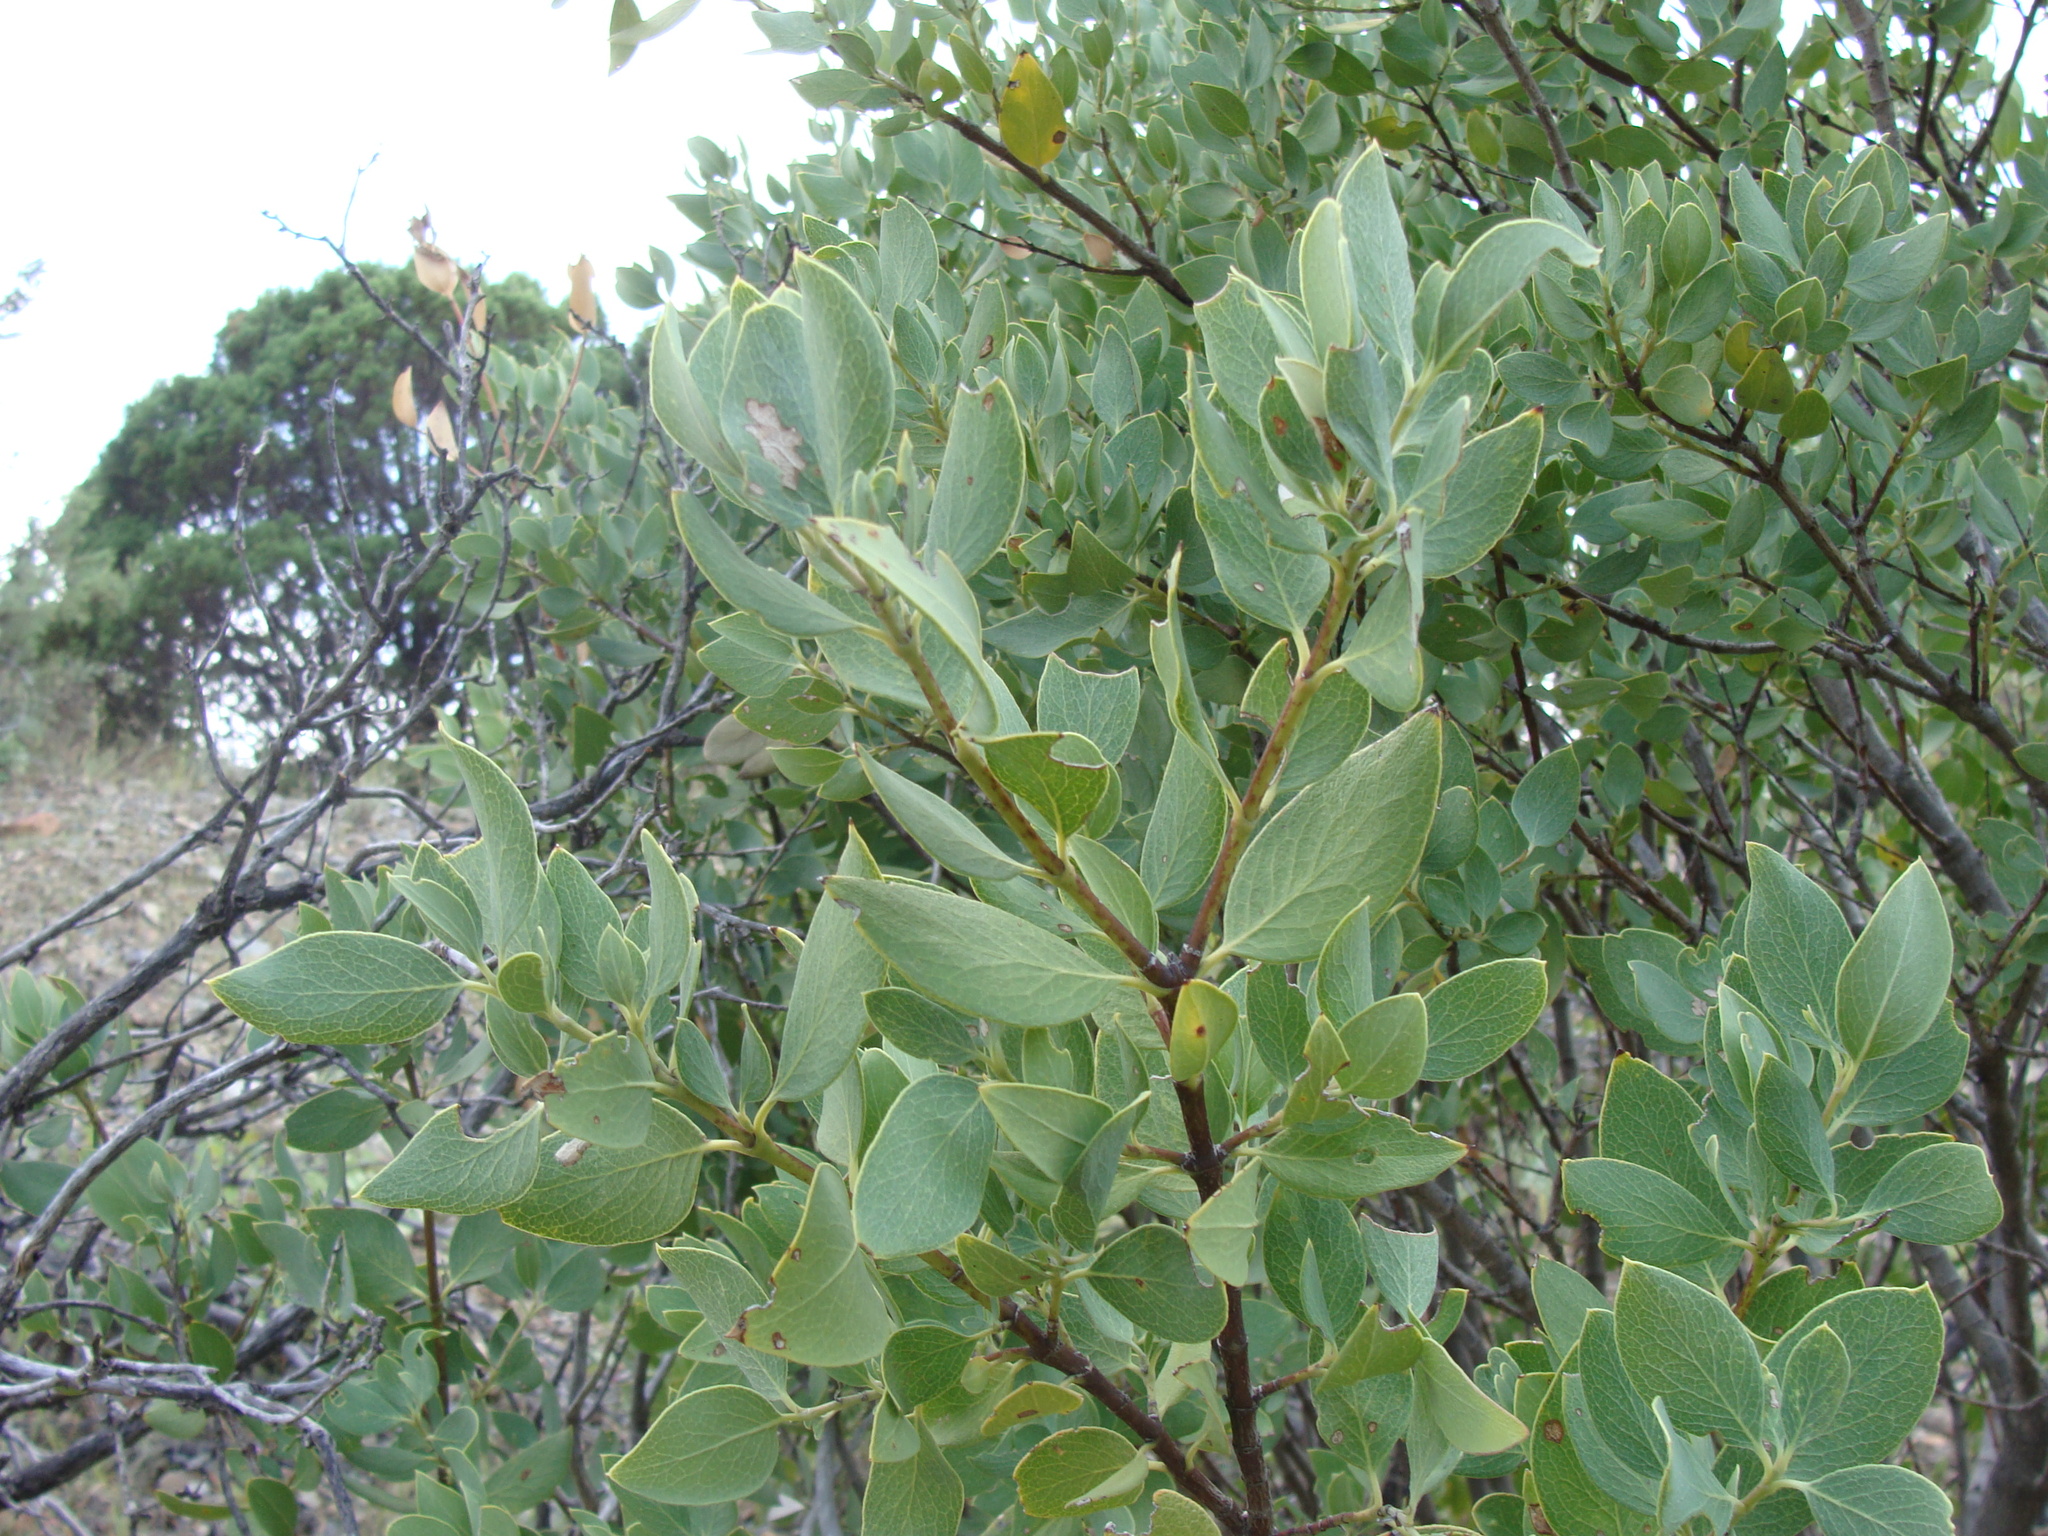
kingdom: Plantae
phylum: Tracheophyta
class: Magnoliopsida
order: Garryales
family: Garryaceae
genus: Garrya
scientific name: Garrya wrightii
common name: Wright's silktassel
